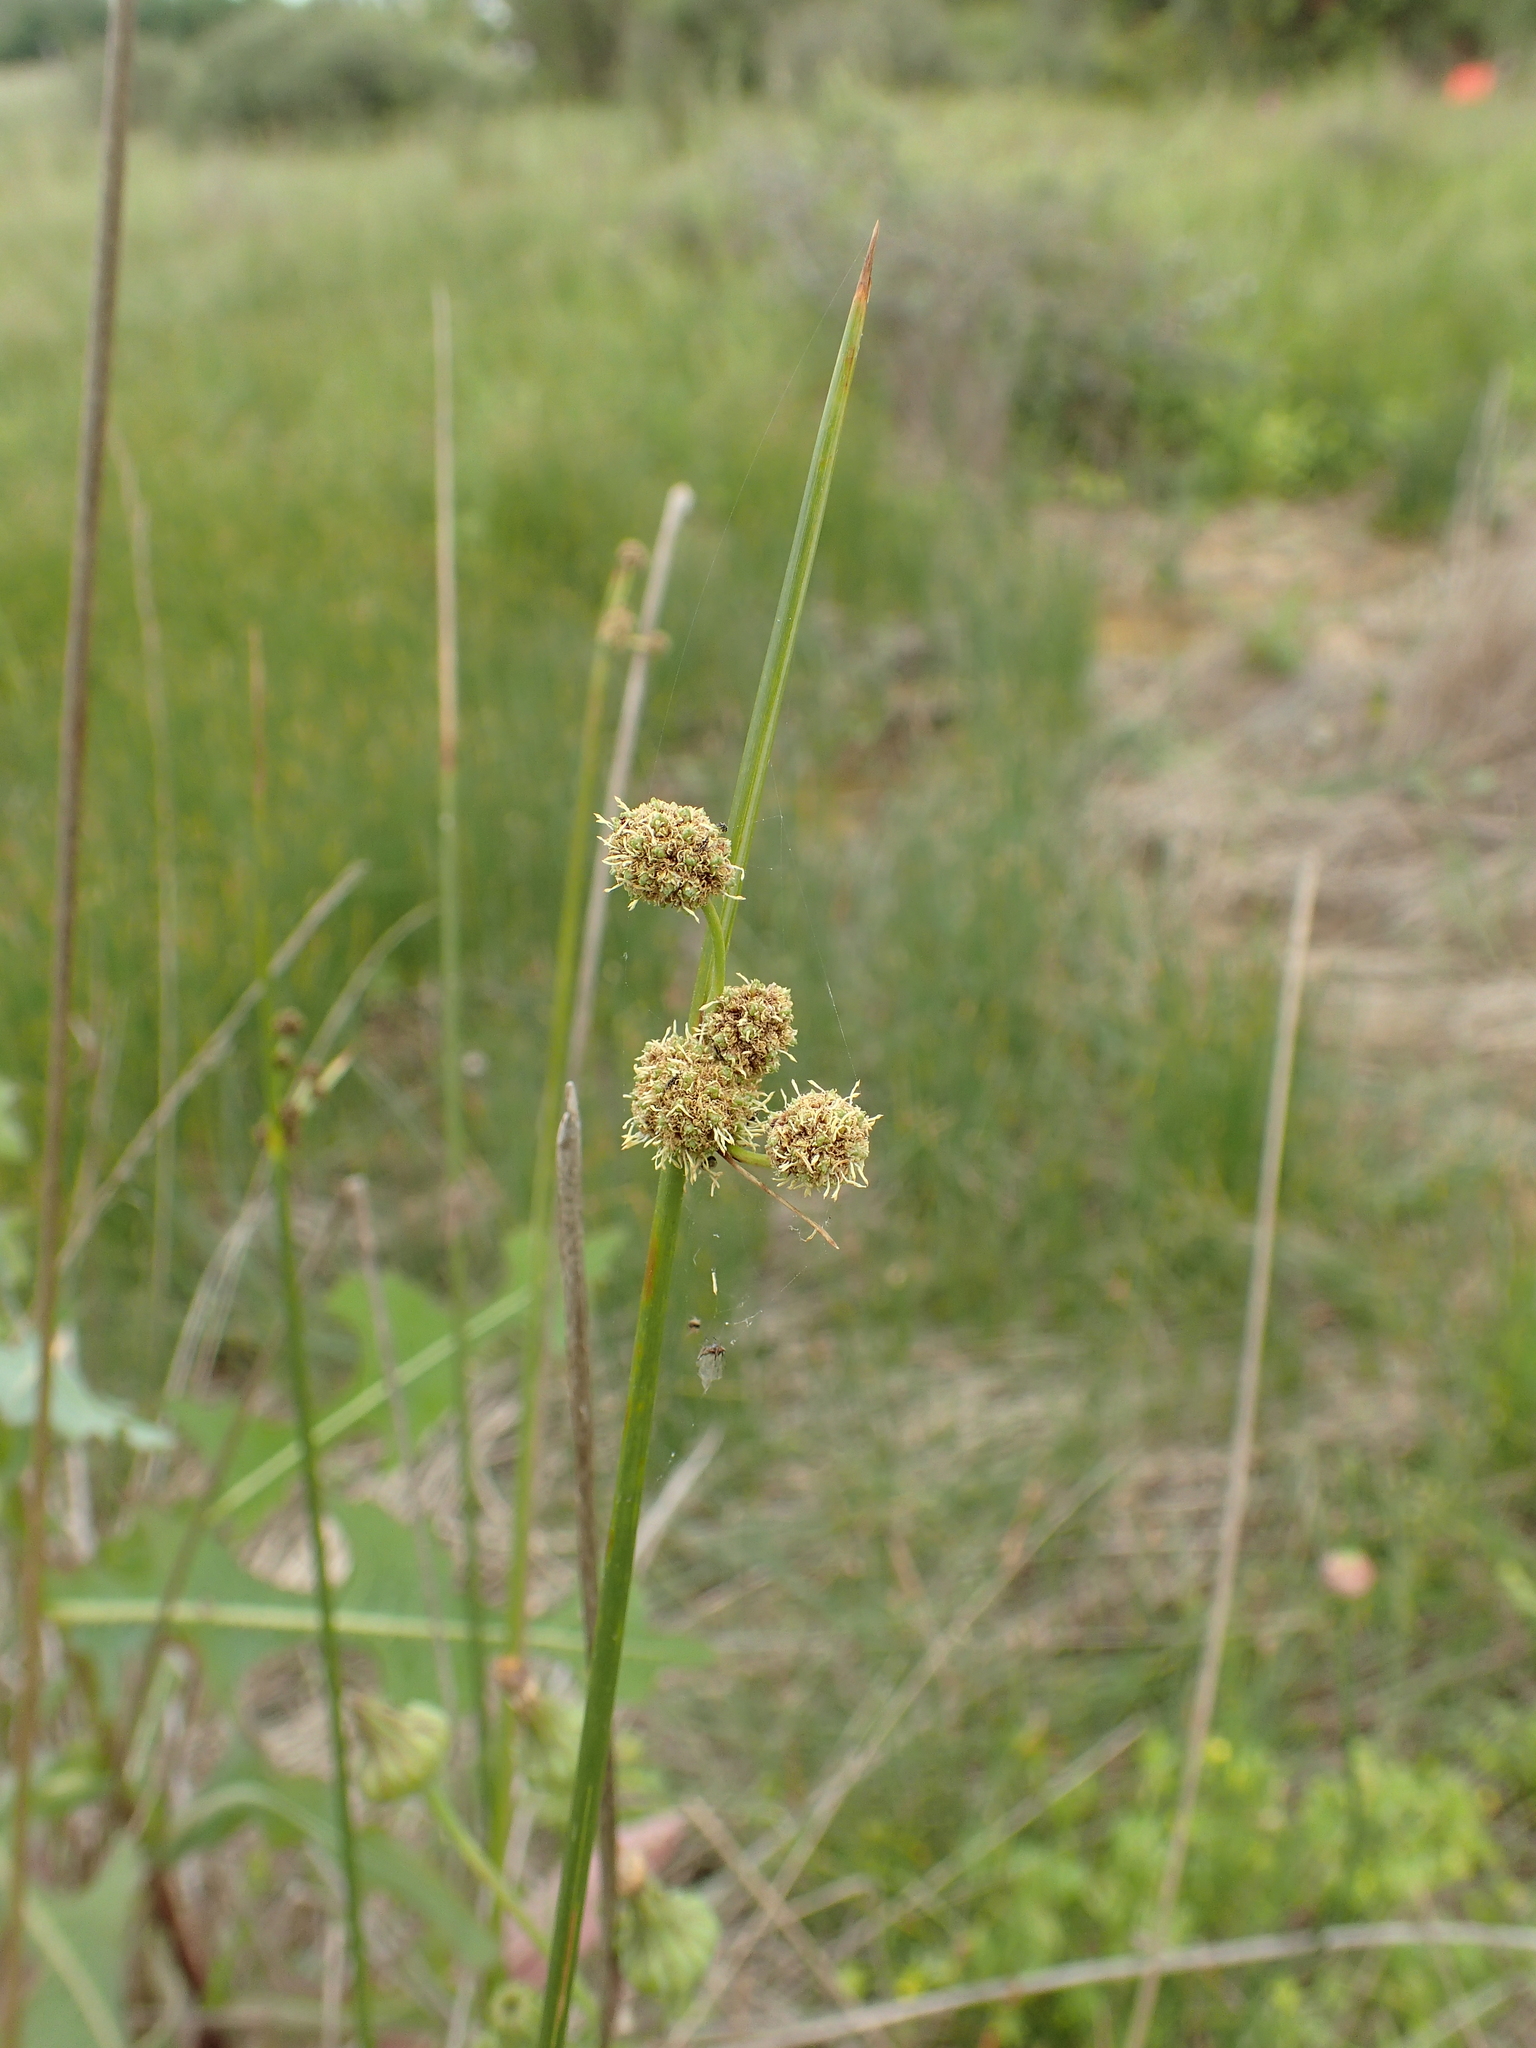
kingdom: Plantae
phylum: Tracheophyta
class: Liliopsida
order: Poales
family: Cyperaceae
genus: Scirpoides
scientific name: Scirpoides holoschoenus
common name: Round-headed club-rush
